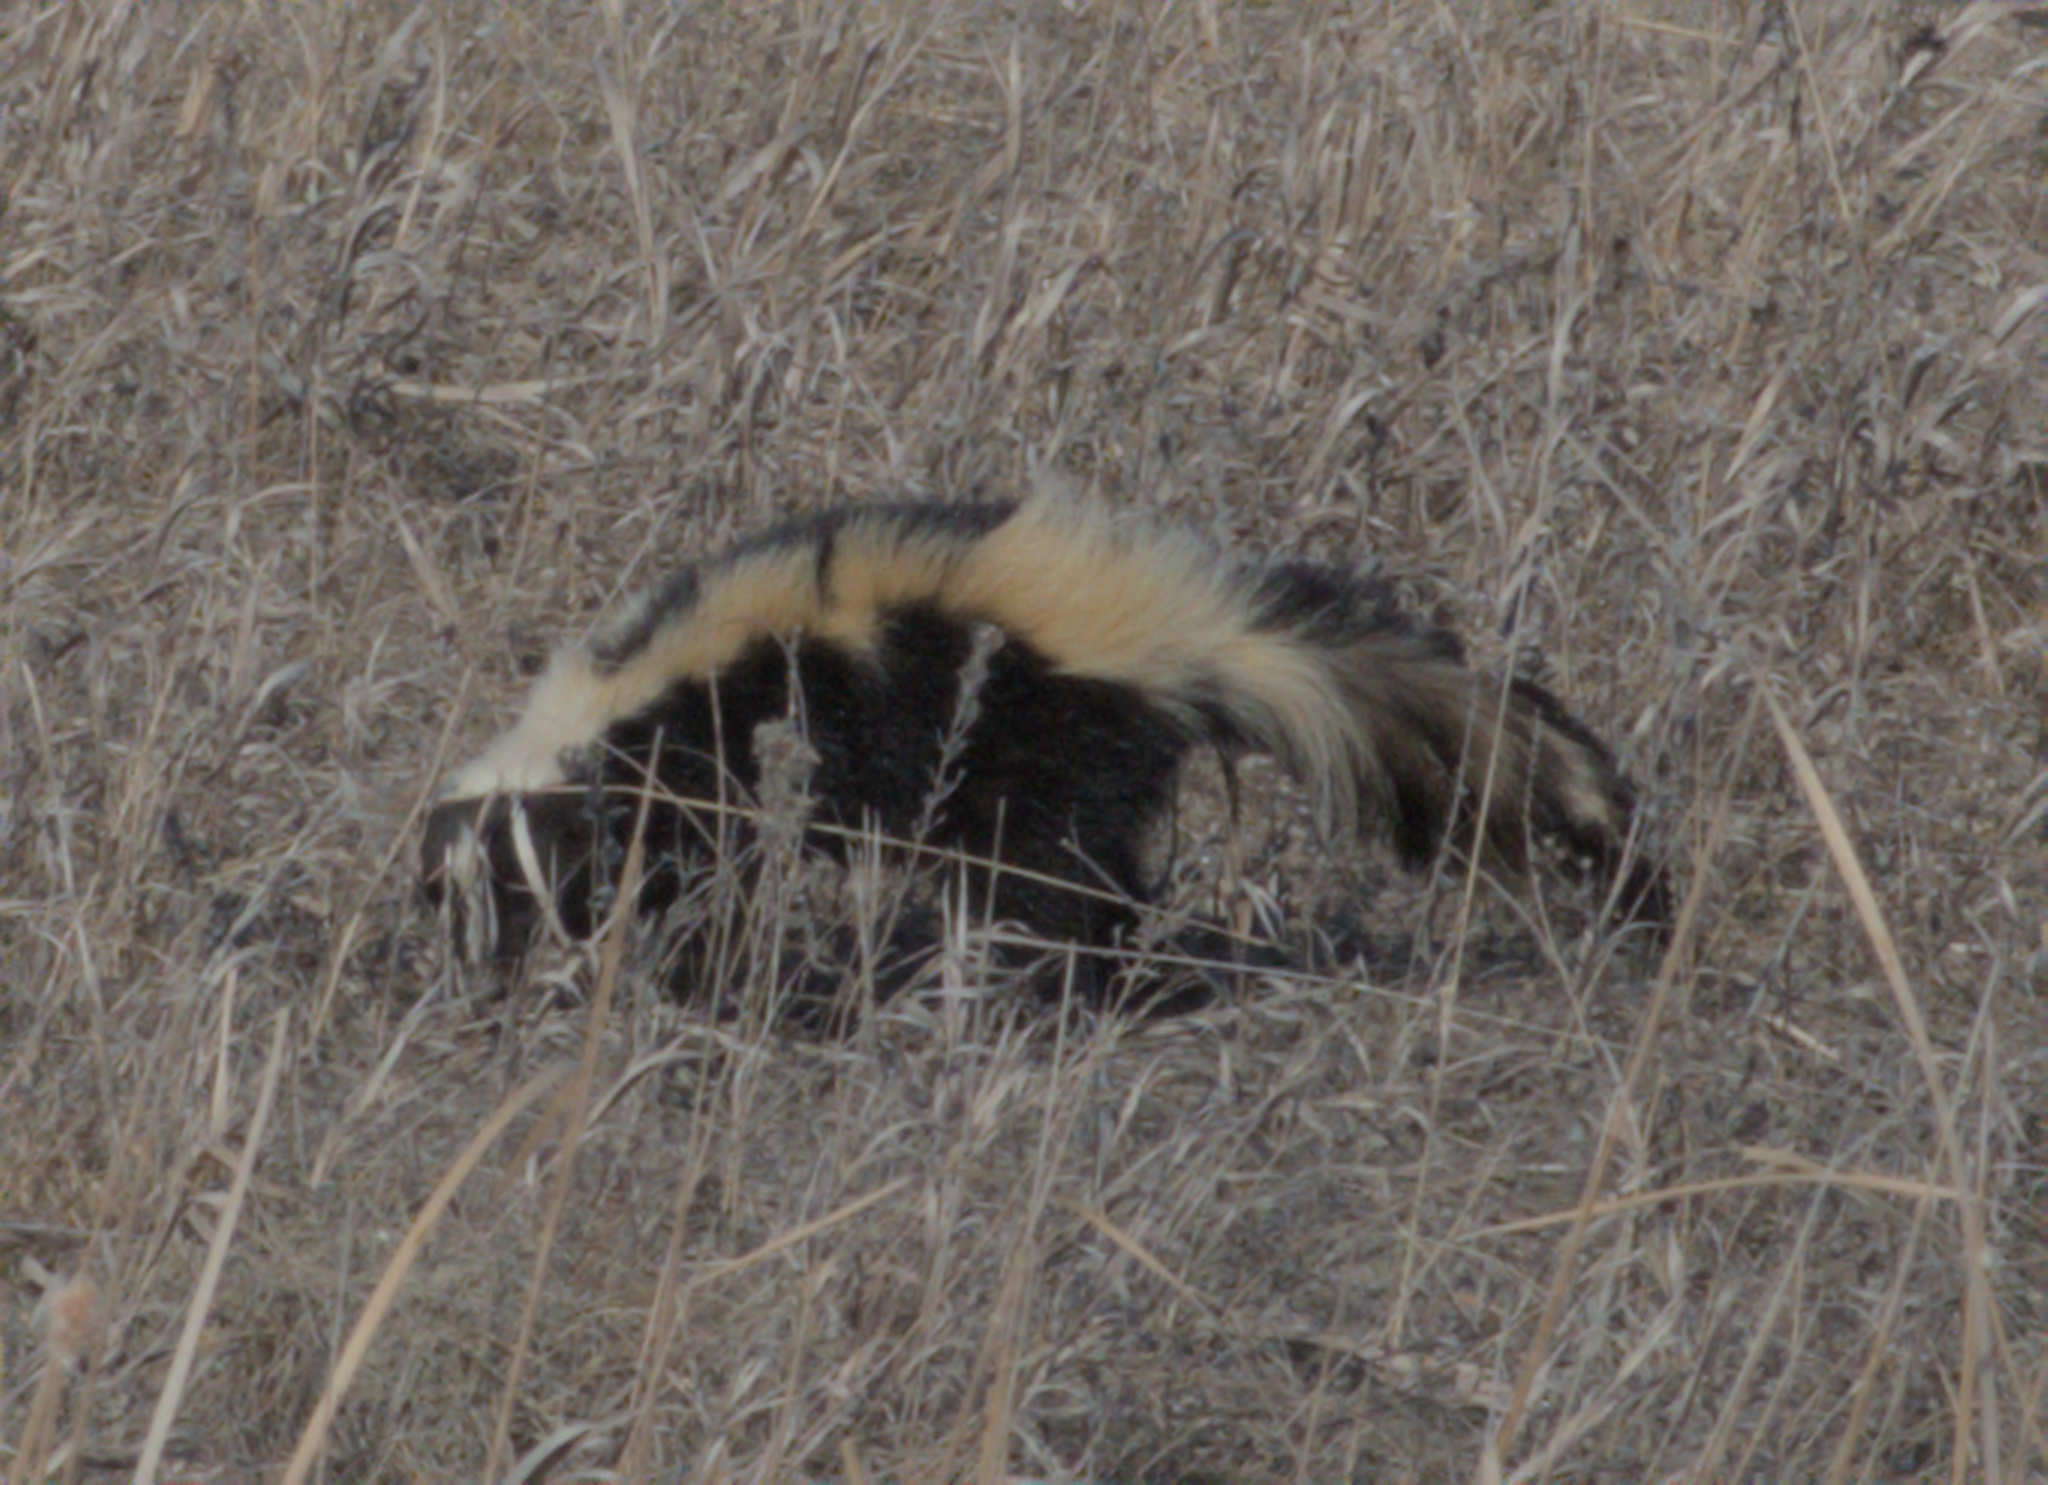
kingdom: Animalia
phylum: Chordata
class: Mammalia
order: Carnivora
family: Mephitidae
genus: Mephitis
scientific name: Mephitis mephitis
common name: Striped skunk
